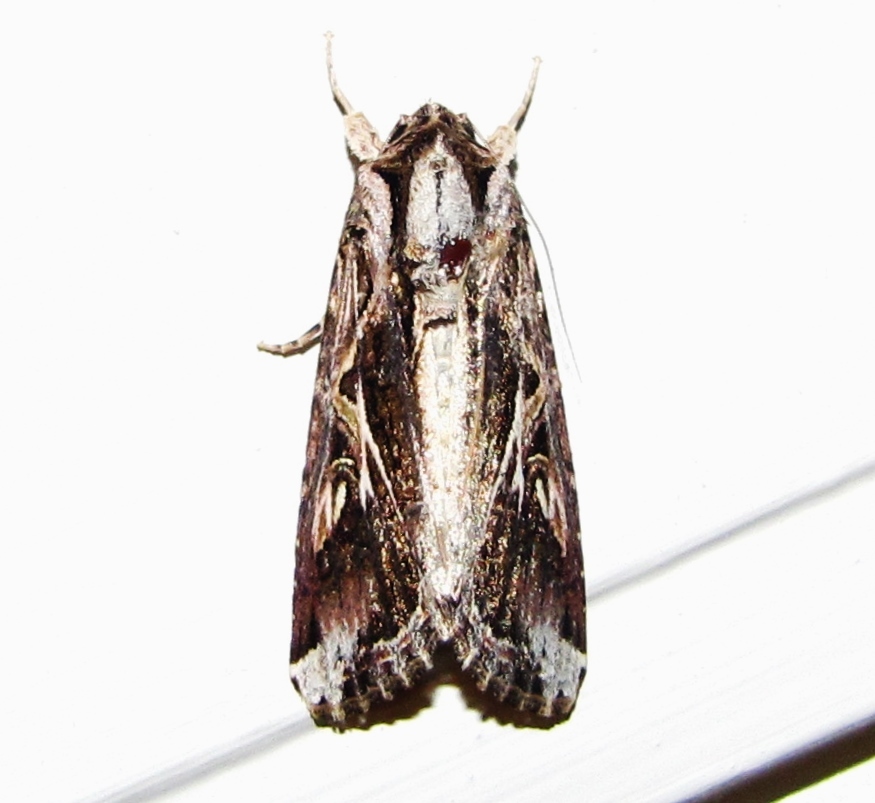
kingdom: Animalia
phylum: Arthropoda
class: Insecta
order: Lepidoptera
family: Noctuidae
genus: Spodoptera
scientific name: Spodoptera dolichos
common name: Sweetpotato armyworm
